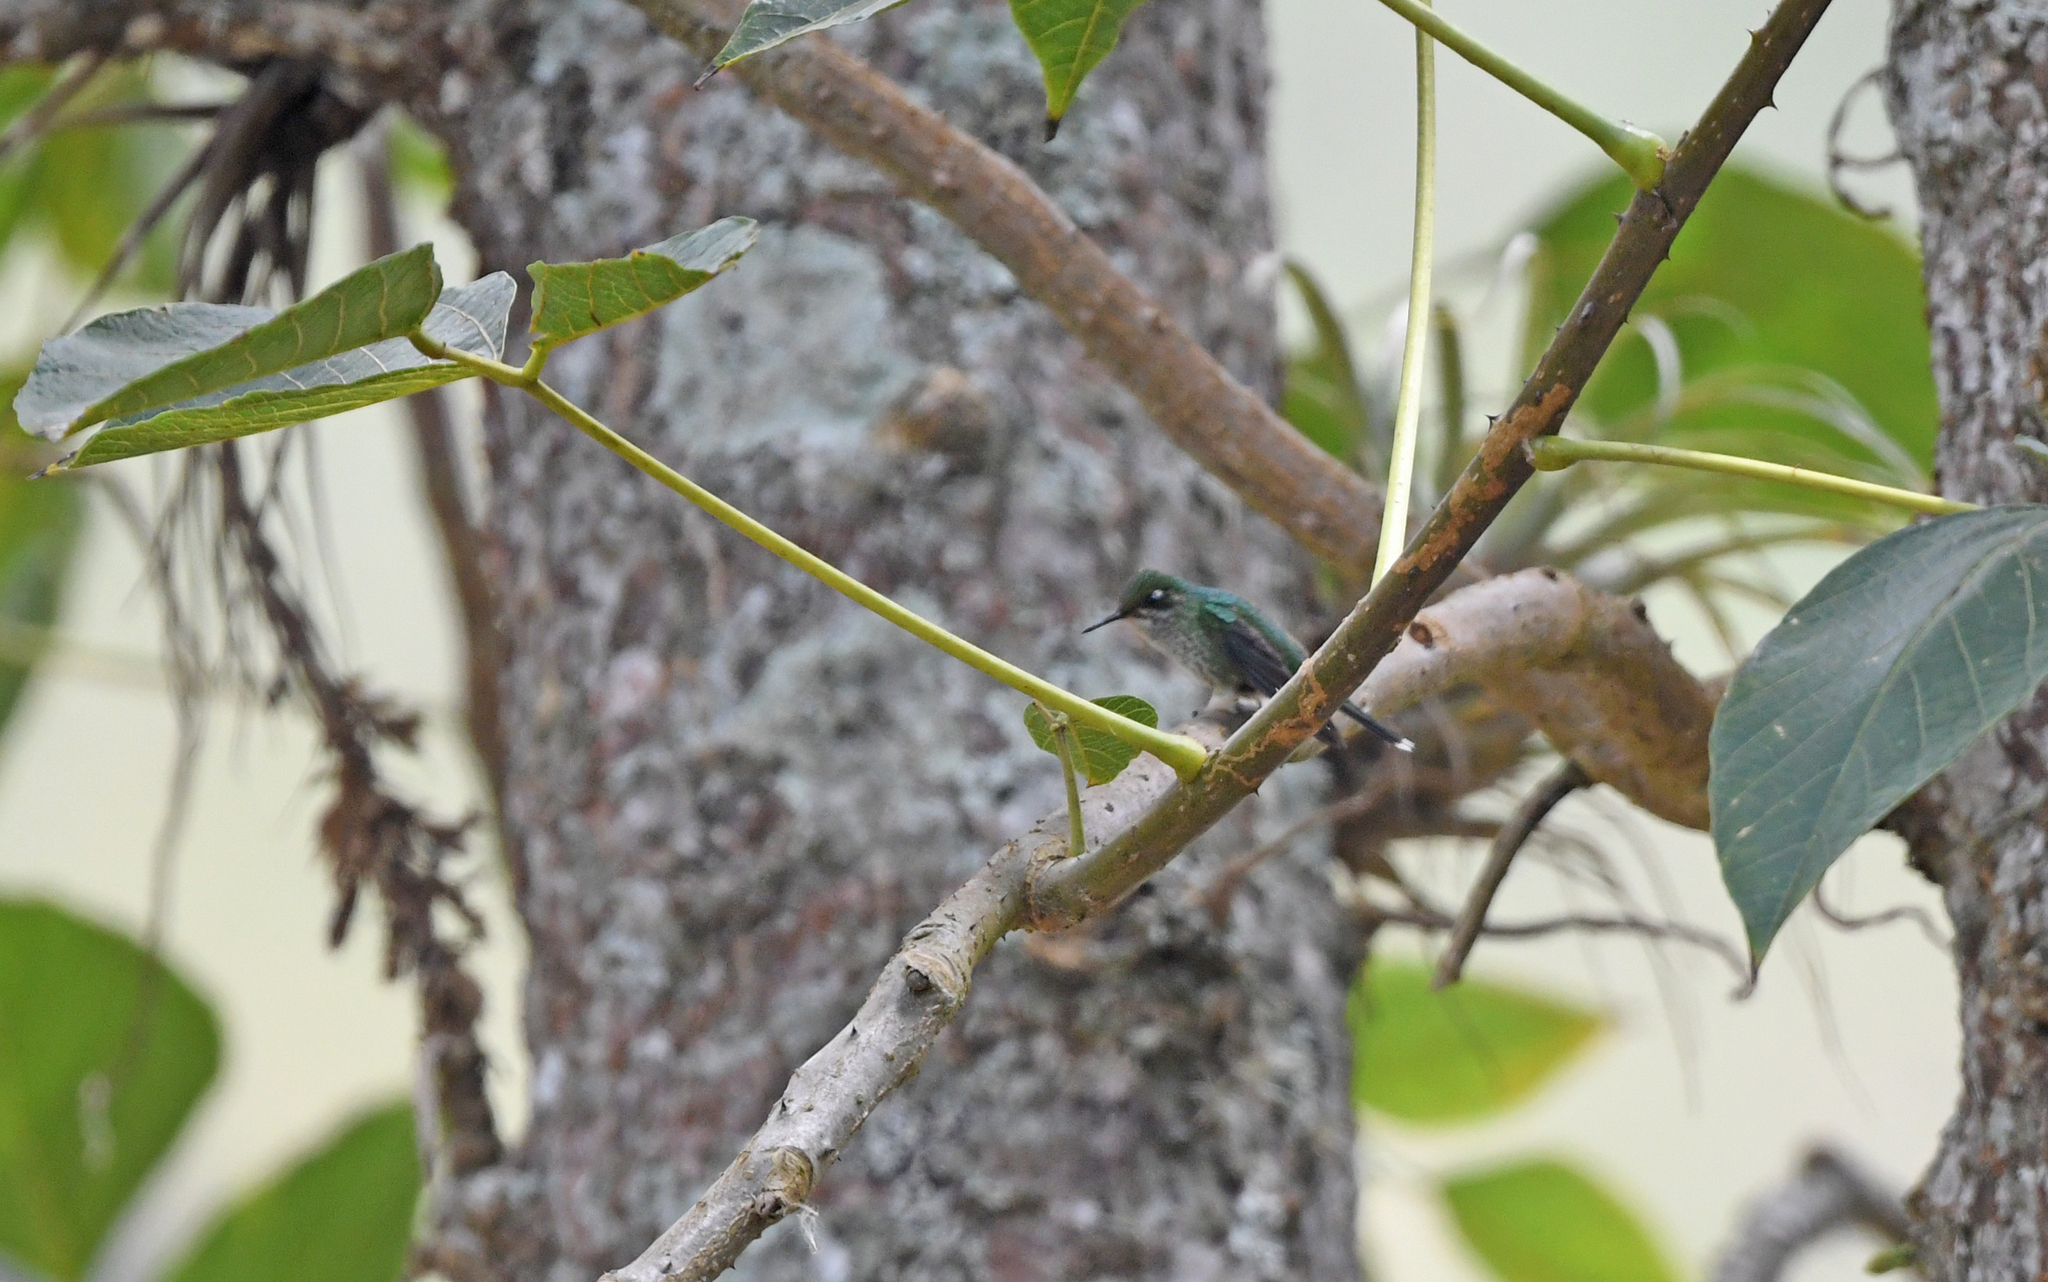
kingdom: Animalia
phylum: Chordata
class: Aves
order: Apodiformes
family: Trochilidae
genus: Ocreatus
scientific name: Ocreatus underwoodii
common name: Booted racket-tail
